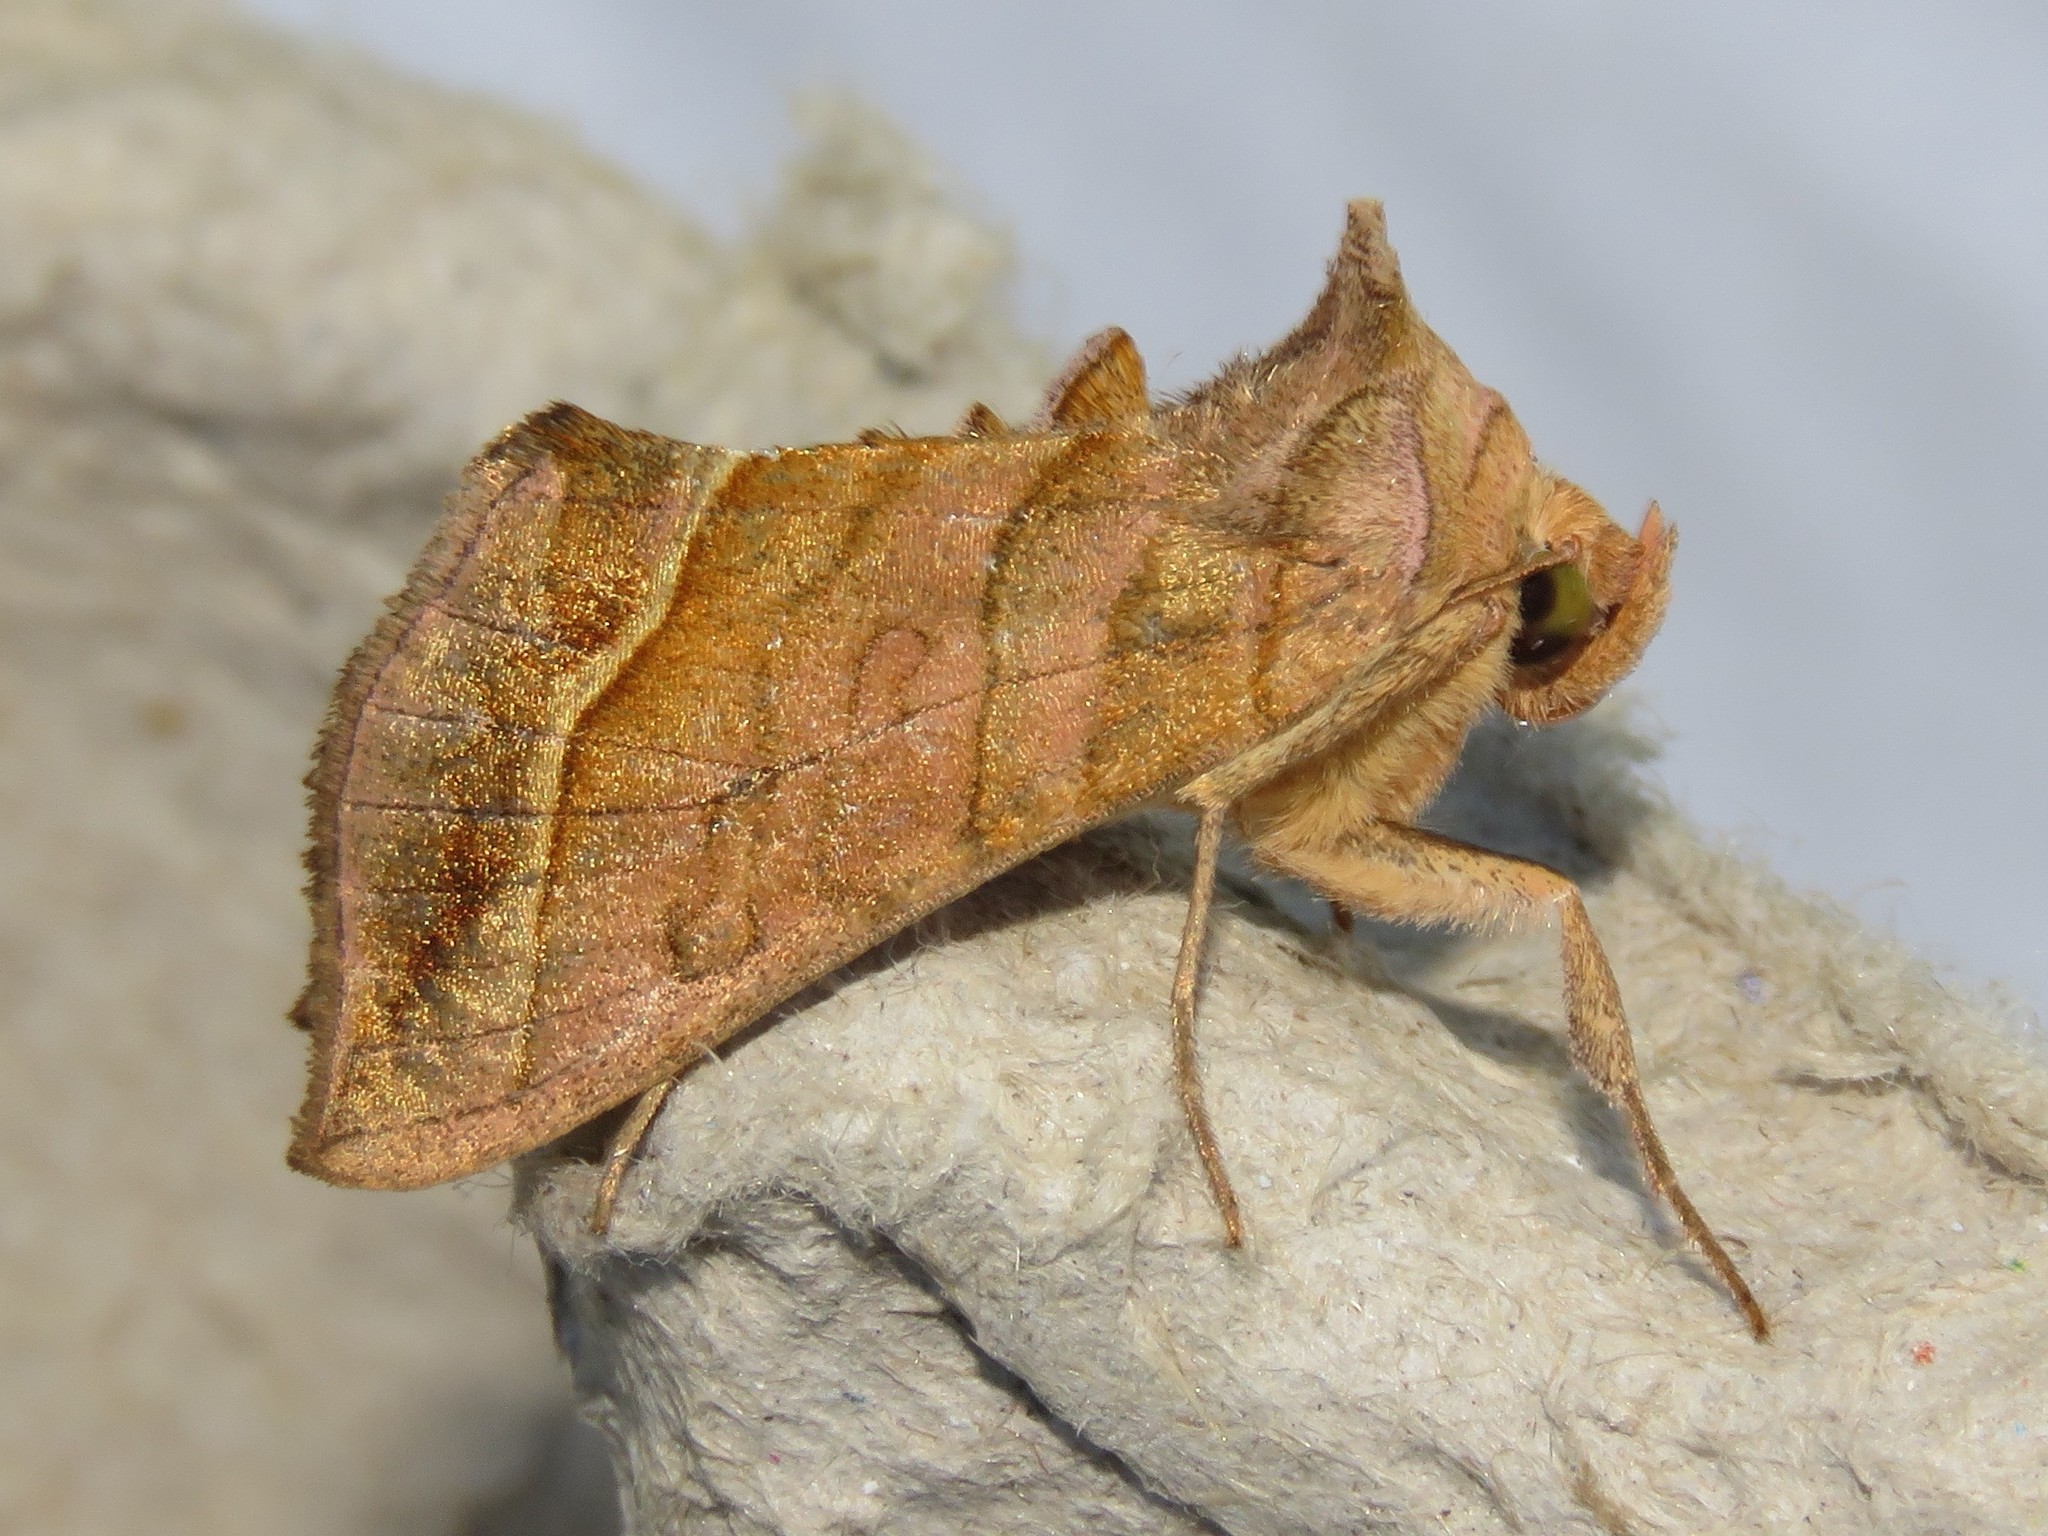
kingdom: Animalia
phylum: Arthropoda
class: Insecta
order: Lepidoptera
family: Noctuidae
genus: Diachrysia
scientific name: Diachrysia aereoides
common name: Dark-spotted looper moth
